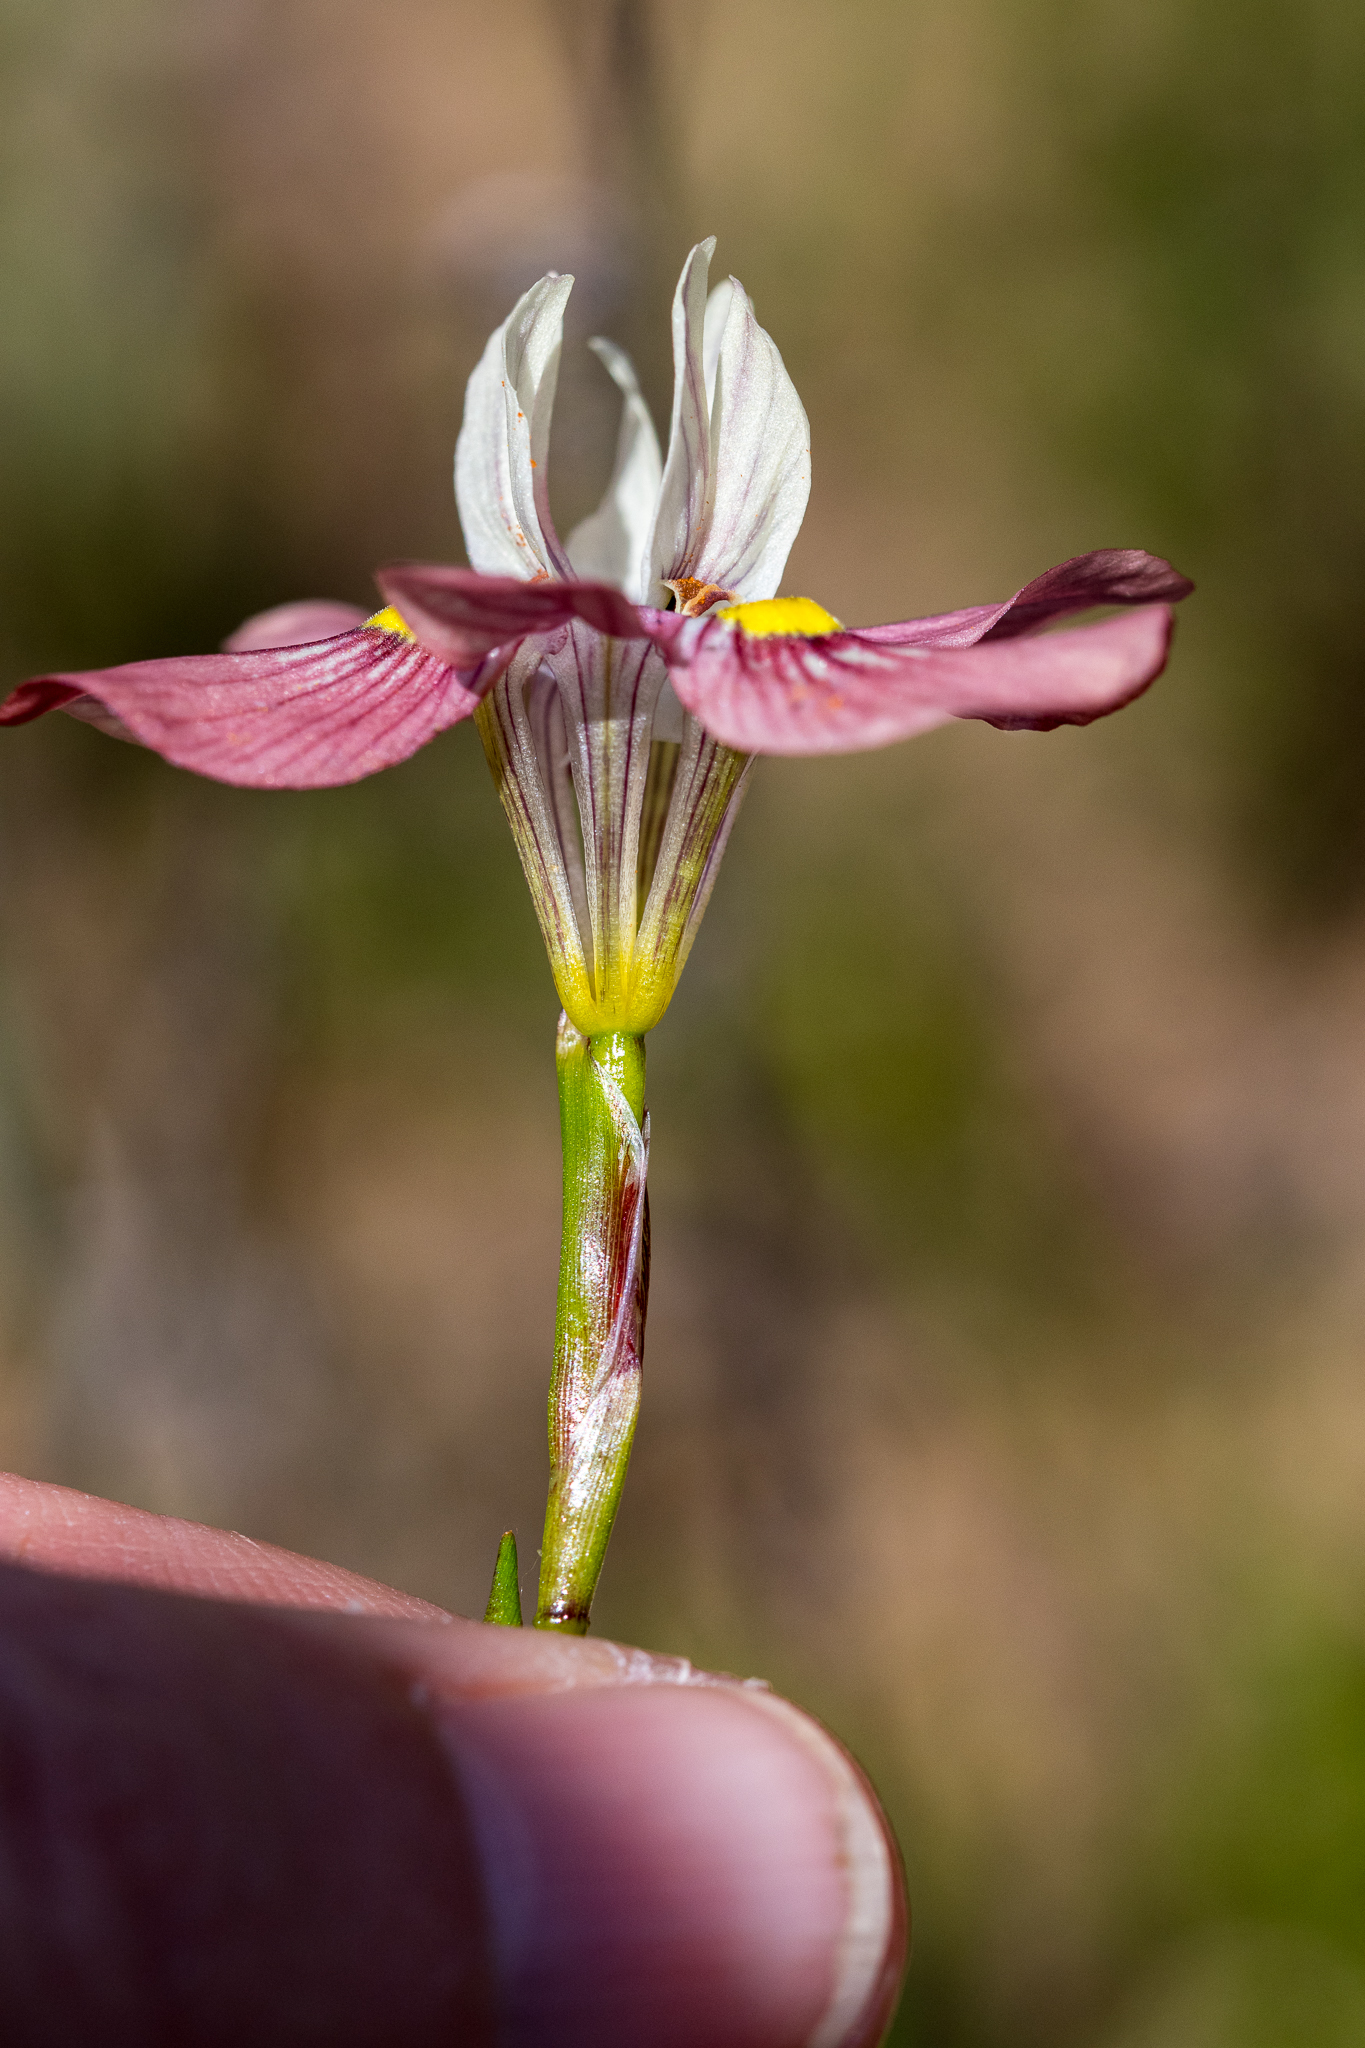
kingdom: Plantae
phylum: Tracheophyta
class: Liliopsida
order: Asparagales
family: Iridaceae
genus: Moraea
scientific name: Moraea gawleri
